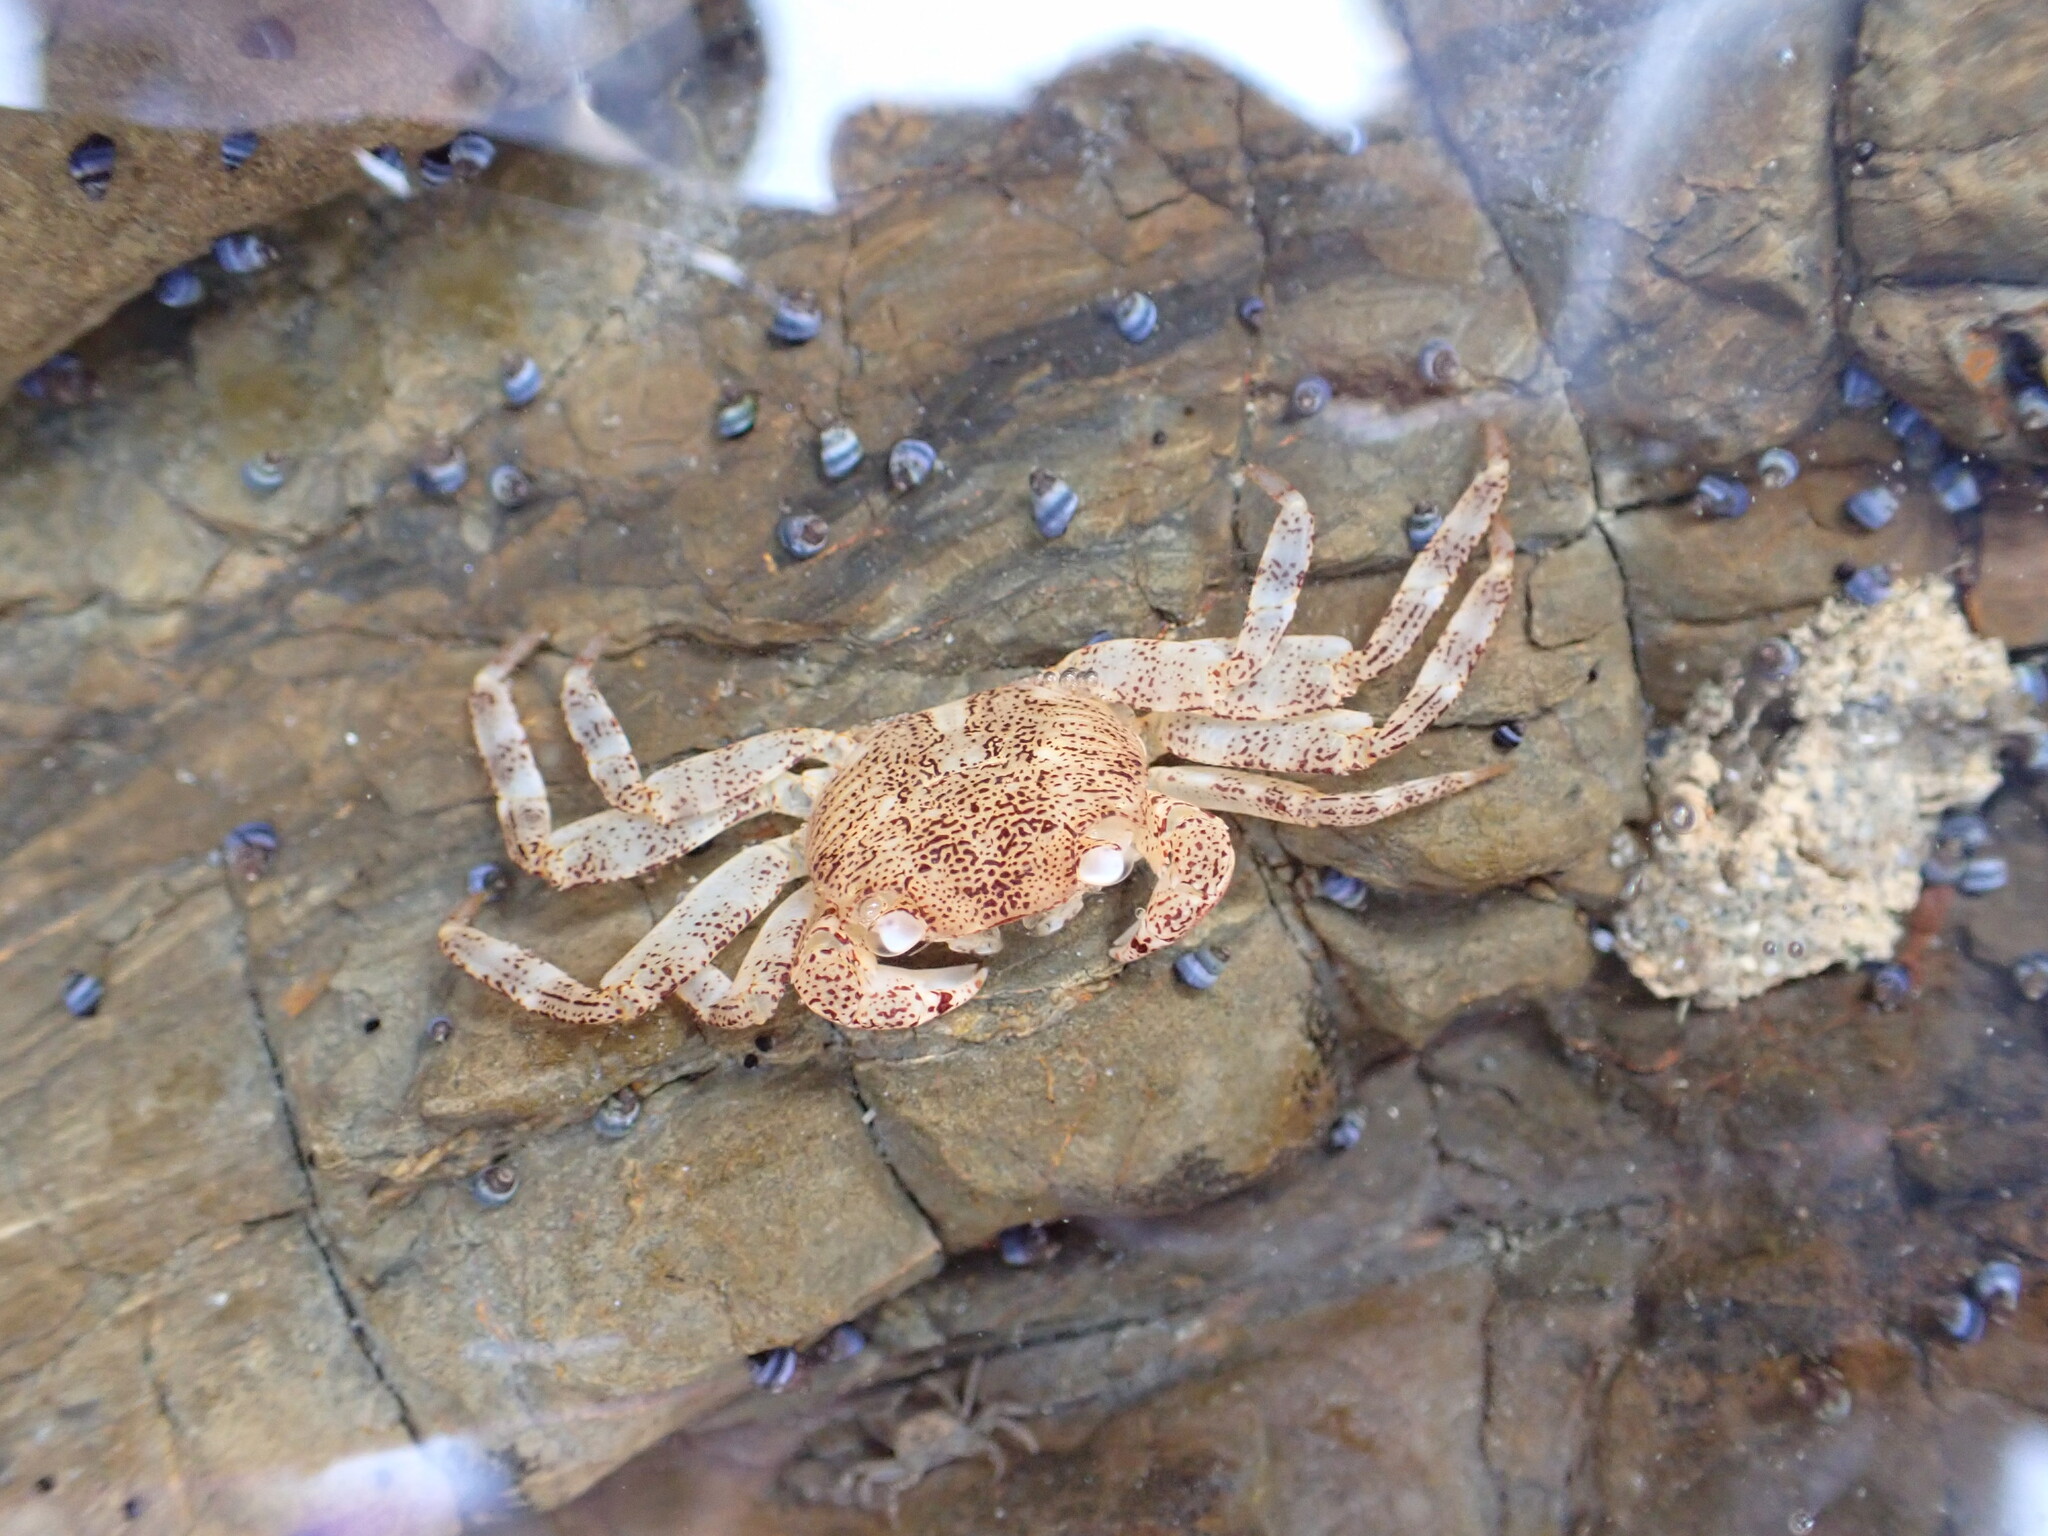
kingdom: Animalia
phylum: Arthropoda
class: Malacostraca
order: Decapoda
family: Grapsidae
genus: Leptograpsus
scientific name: Leptograpsus variegatus
